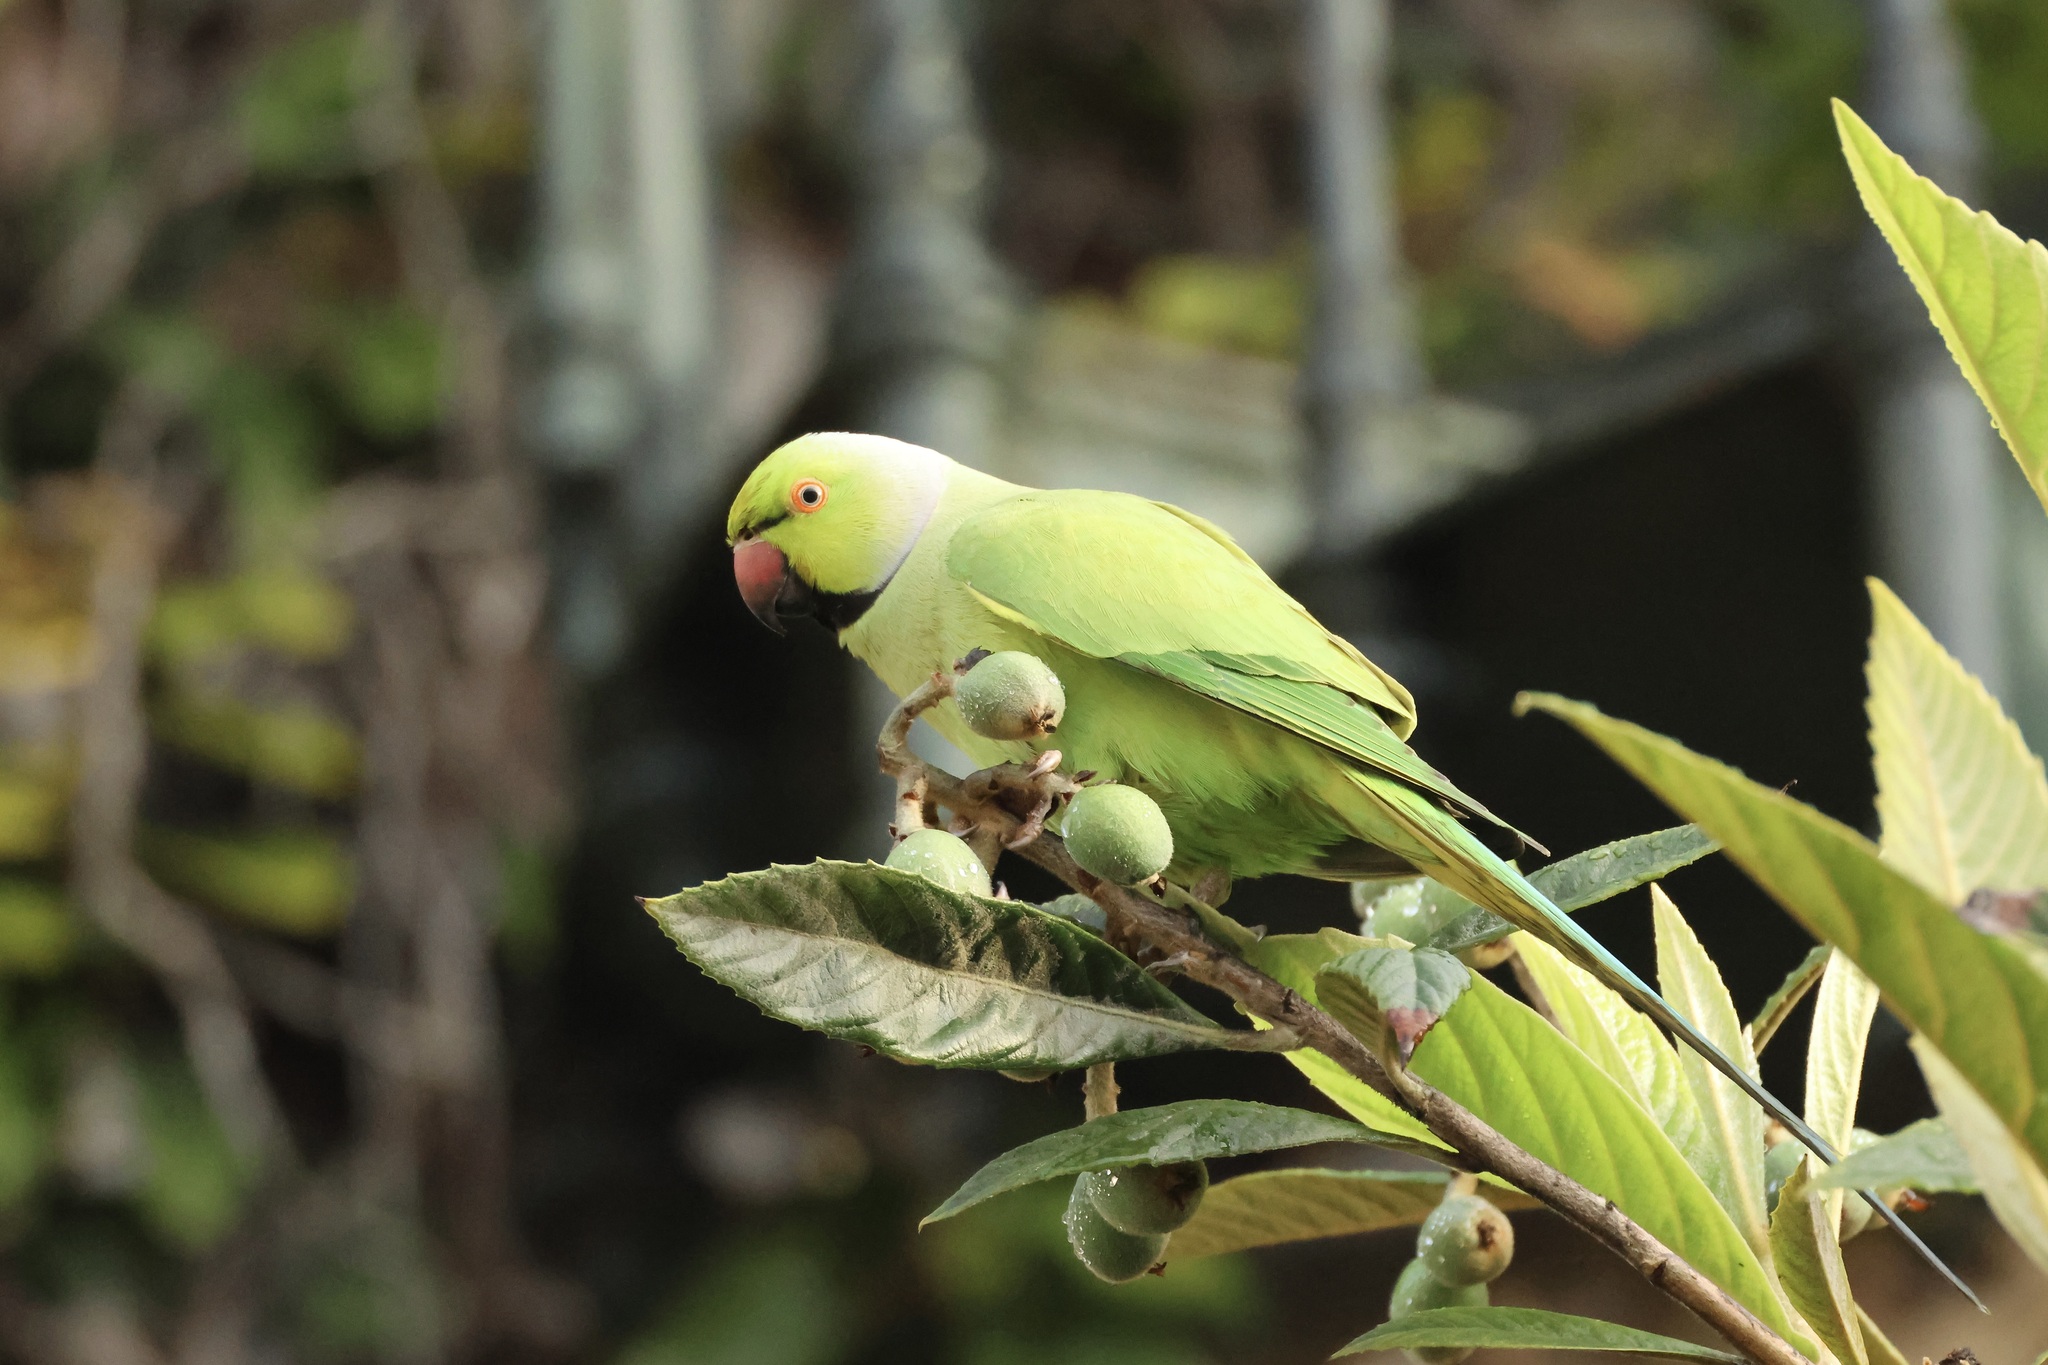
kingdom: Animalia
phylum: Chordata
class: Aves
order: Psittaciformes
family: Psittacidae
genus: Psittacula
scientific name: Psittacula krameri
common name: Rose-ringed parakeet
